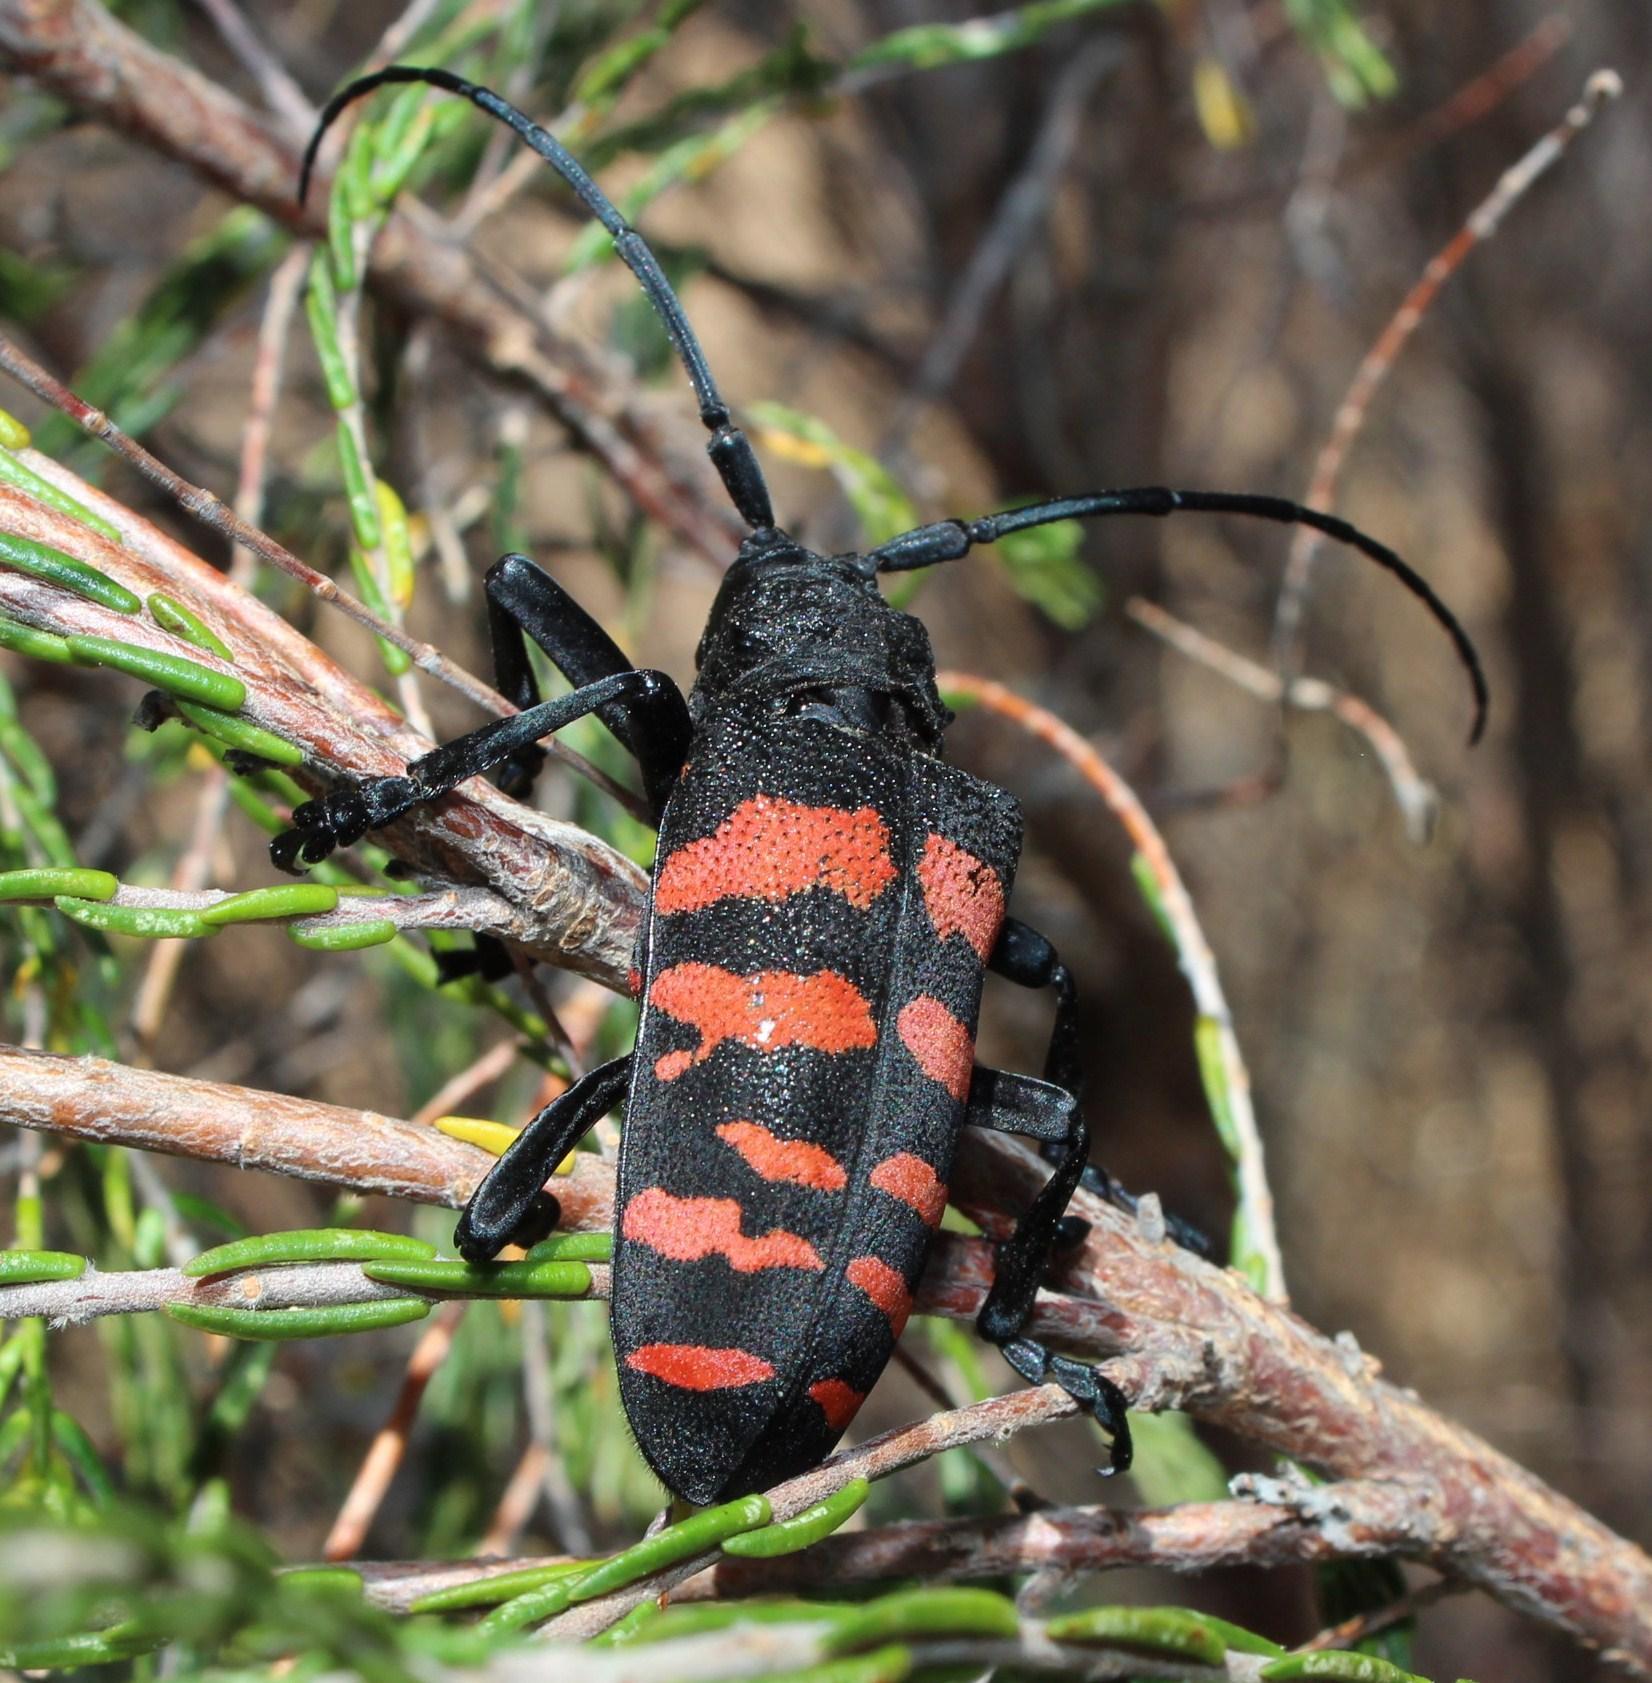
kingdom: Animalia
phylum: Arthropoda
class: Insecta
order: Coleoptera
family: Cerambycidae
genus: Ceroplesis
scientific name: Ceroplesis capensis
